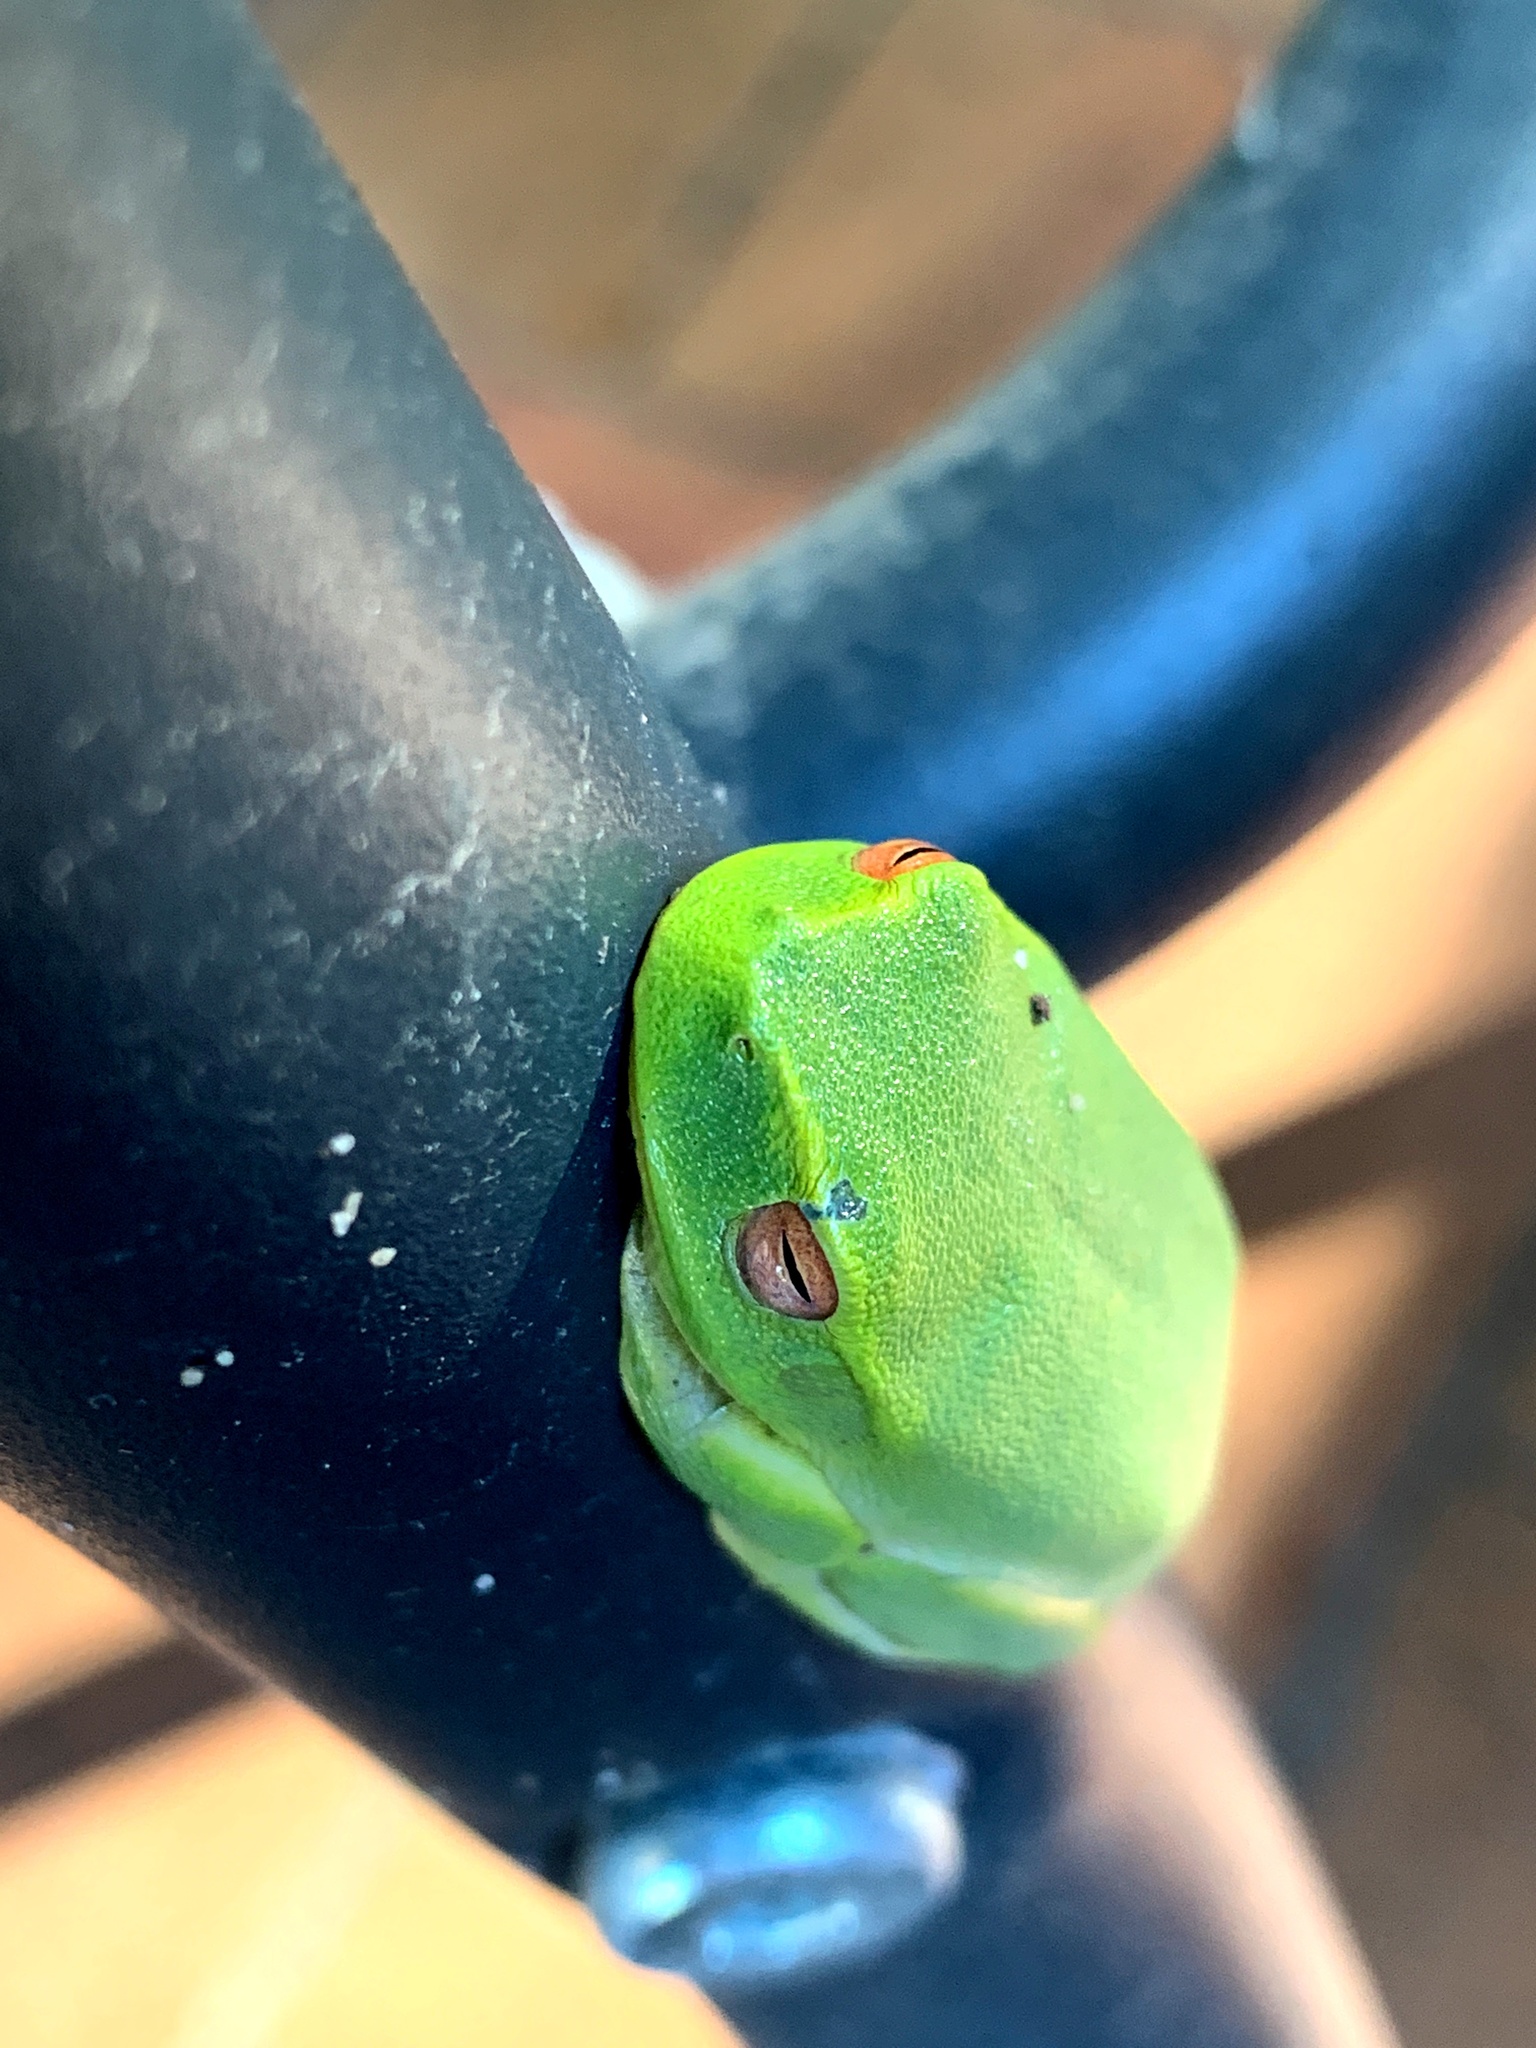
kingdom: Animalia
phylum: Chordata
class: Amphibia
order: Anura
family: Pelodryadidae
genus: Ranoidea
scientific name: Ranoidea gracilenta
